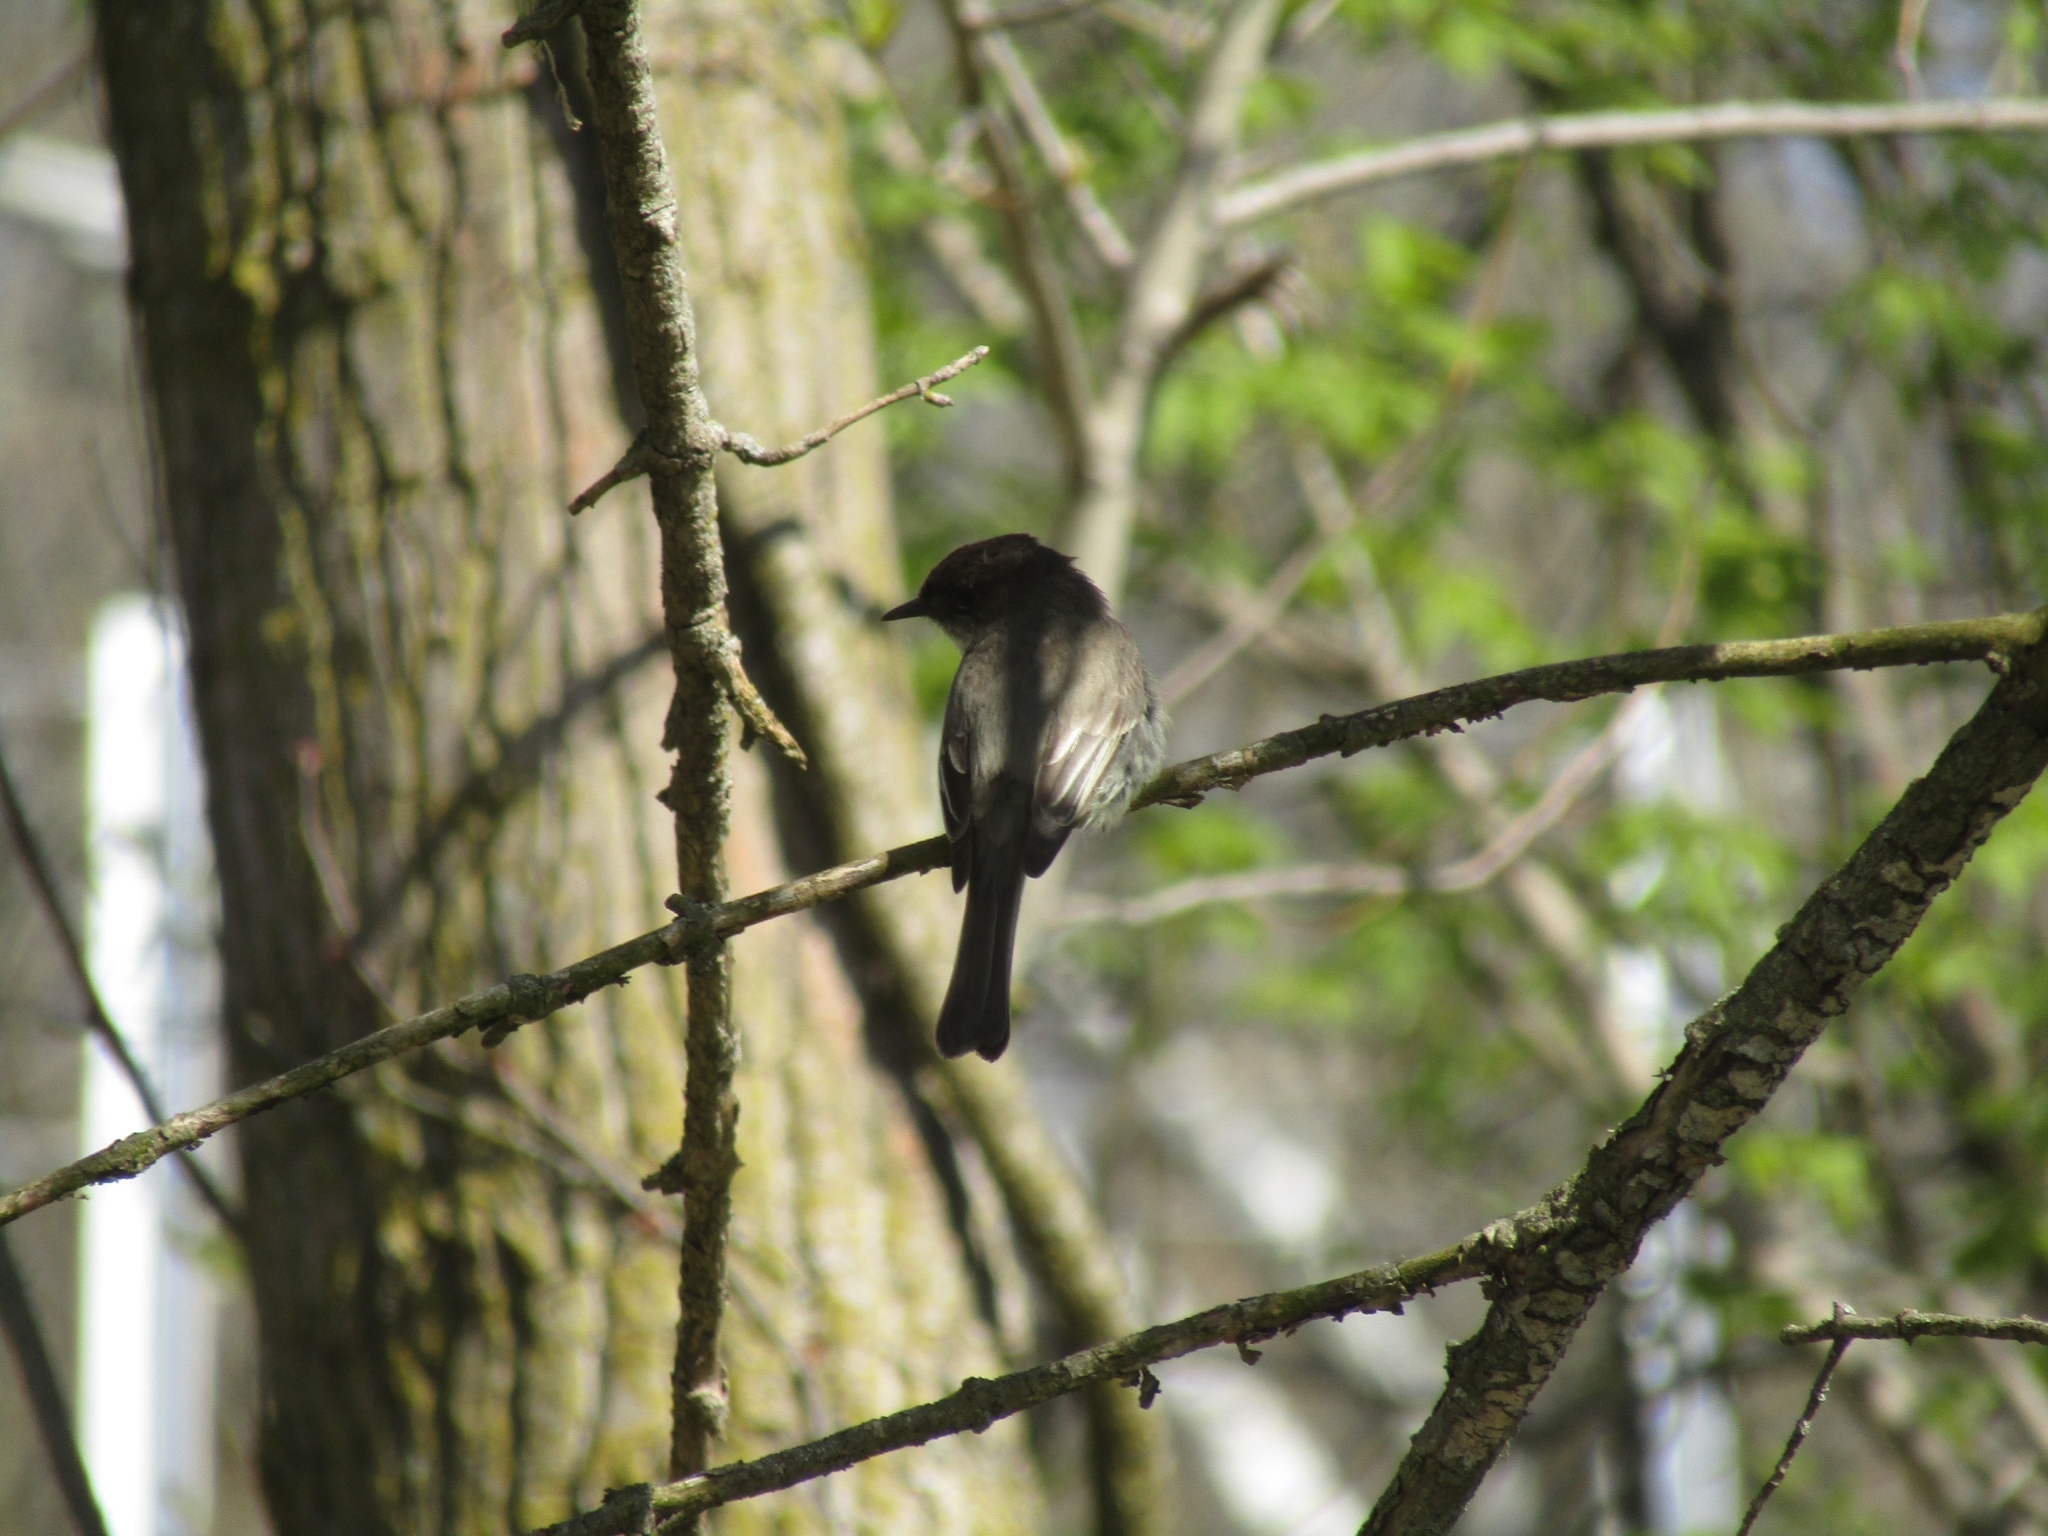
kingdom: Animalia
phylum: Chordata
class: Aves
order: Passeriformes
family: Tyrannidae
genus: Sayornis
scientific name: Sayornis phoebe
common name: Eastern phoebe
